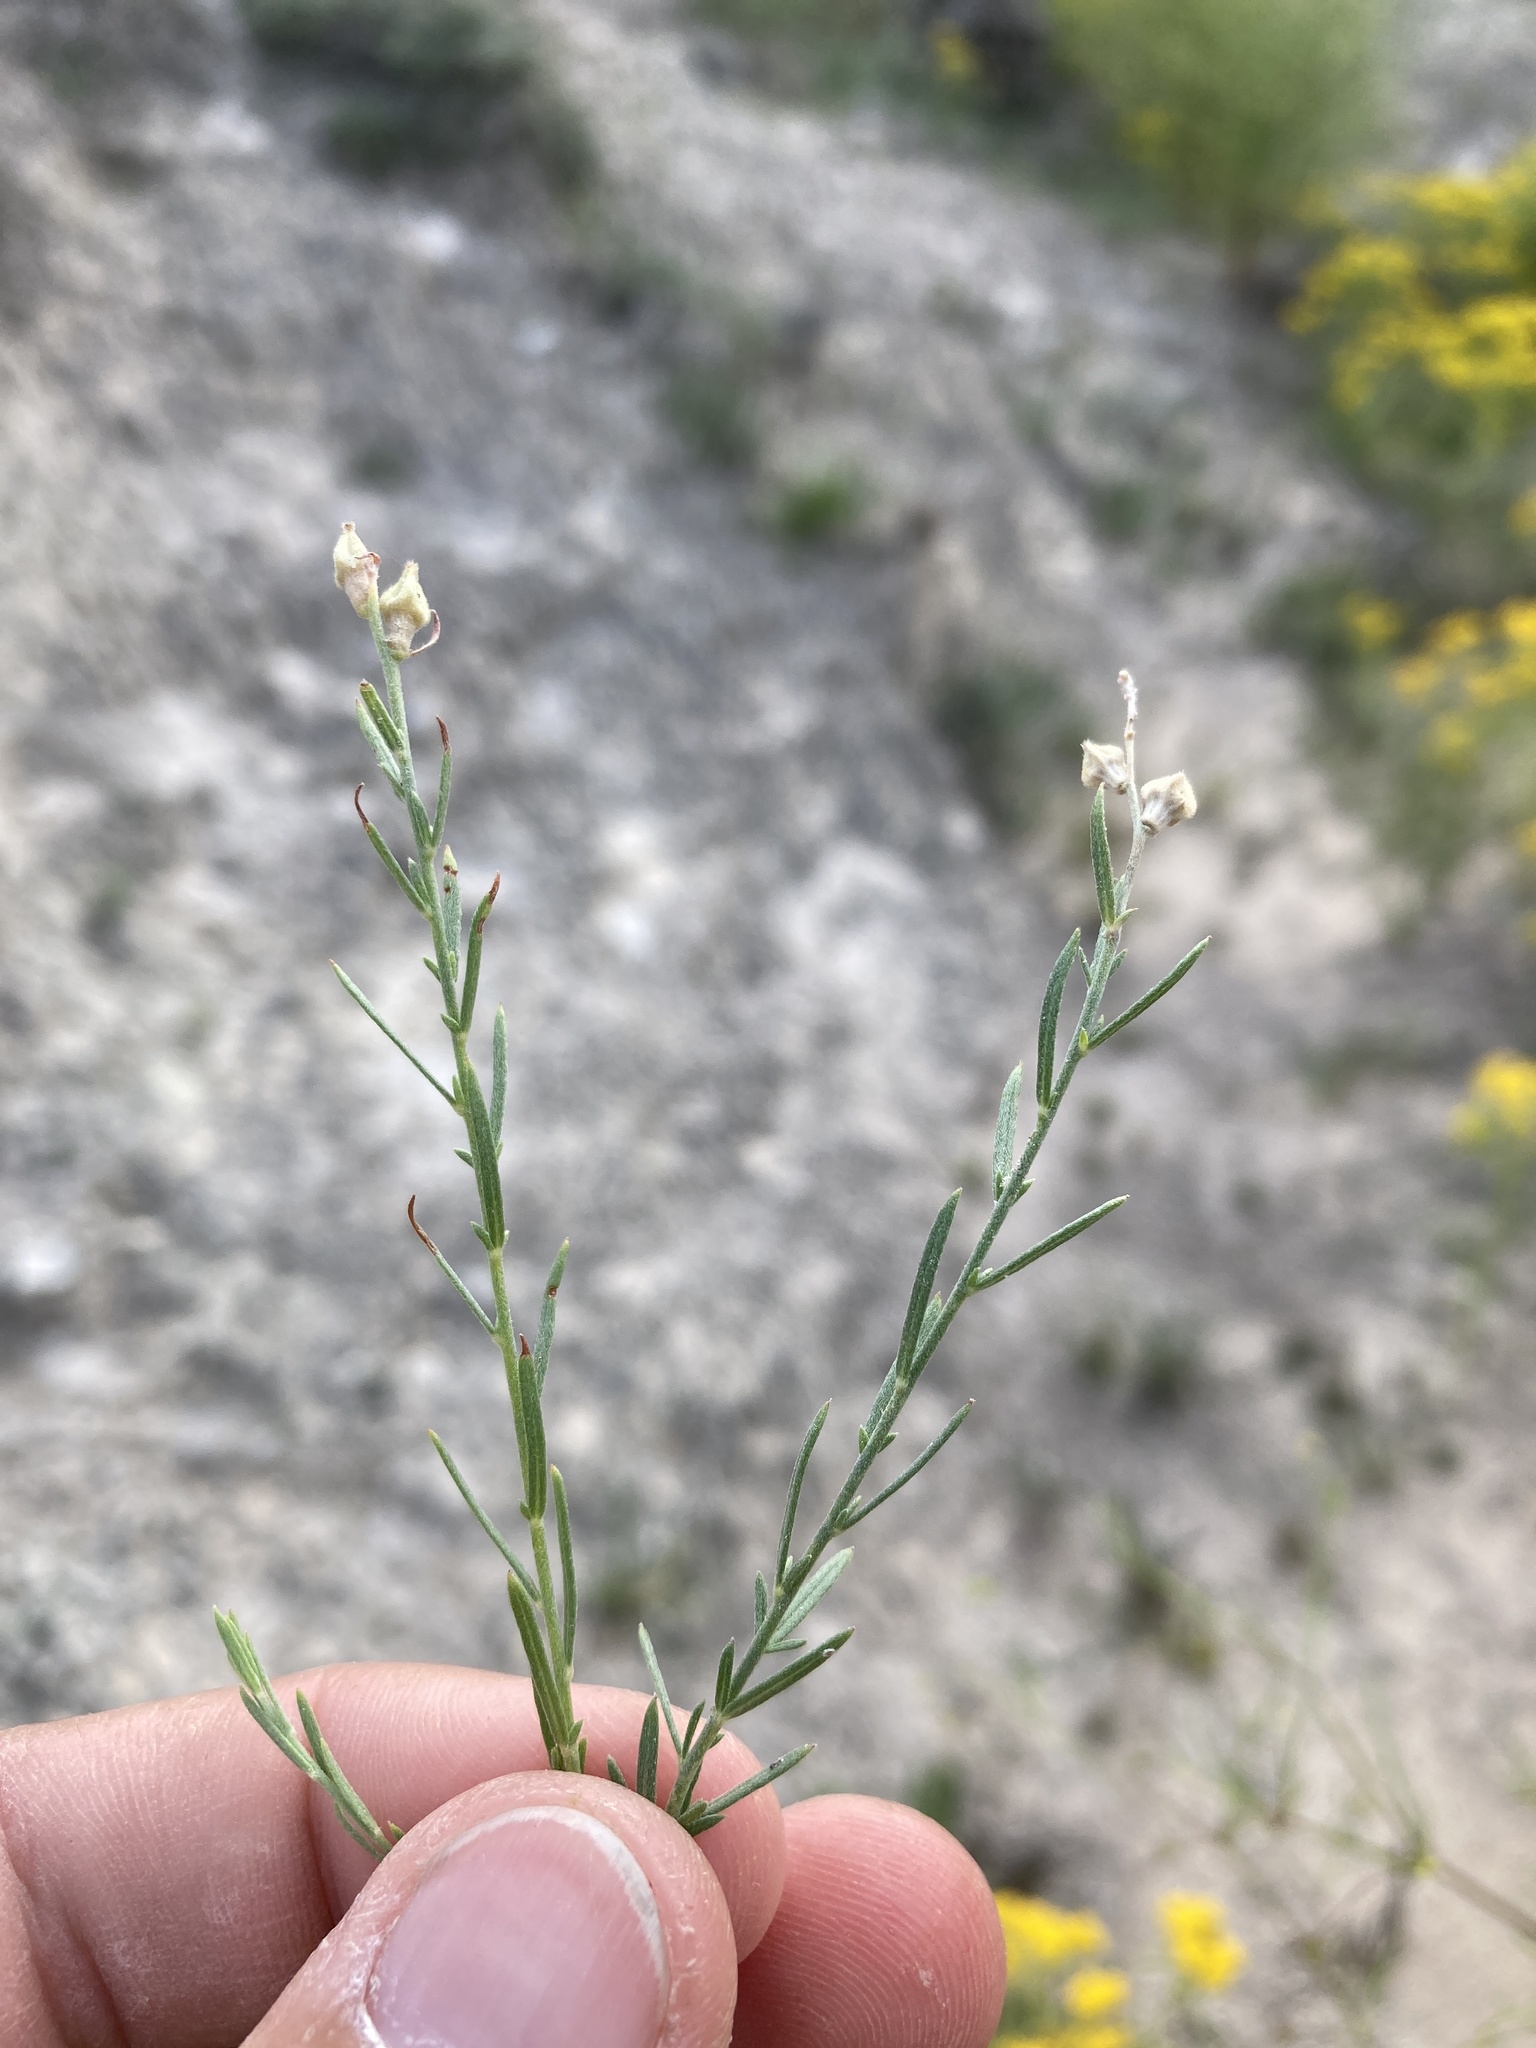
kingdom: Plantae
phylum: Tracheophyta
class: Magnoliopsida
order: Myrtales
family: Onagraceae
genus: Oenothera
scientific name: Oenothera suffrutescens
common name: Scarlet beeblossom
